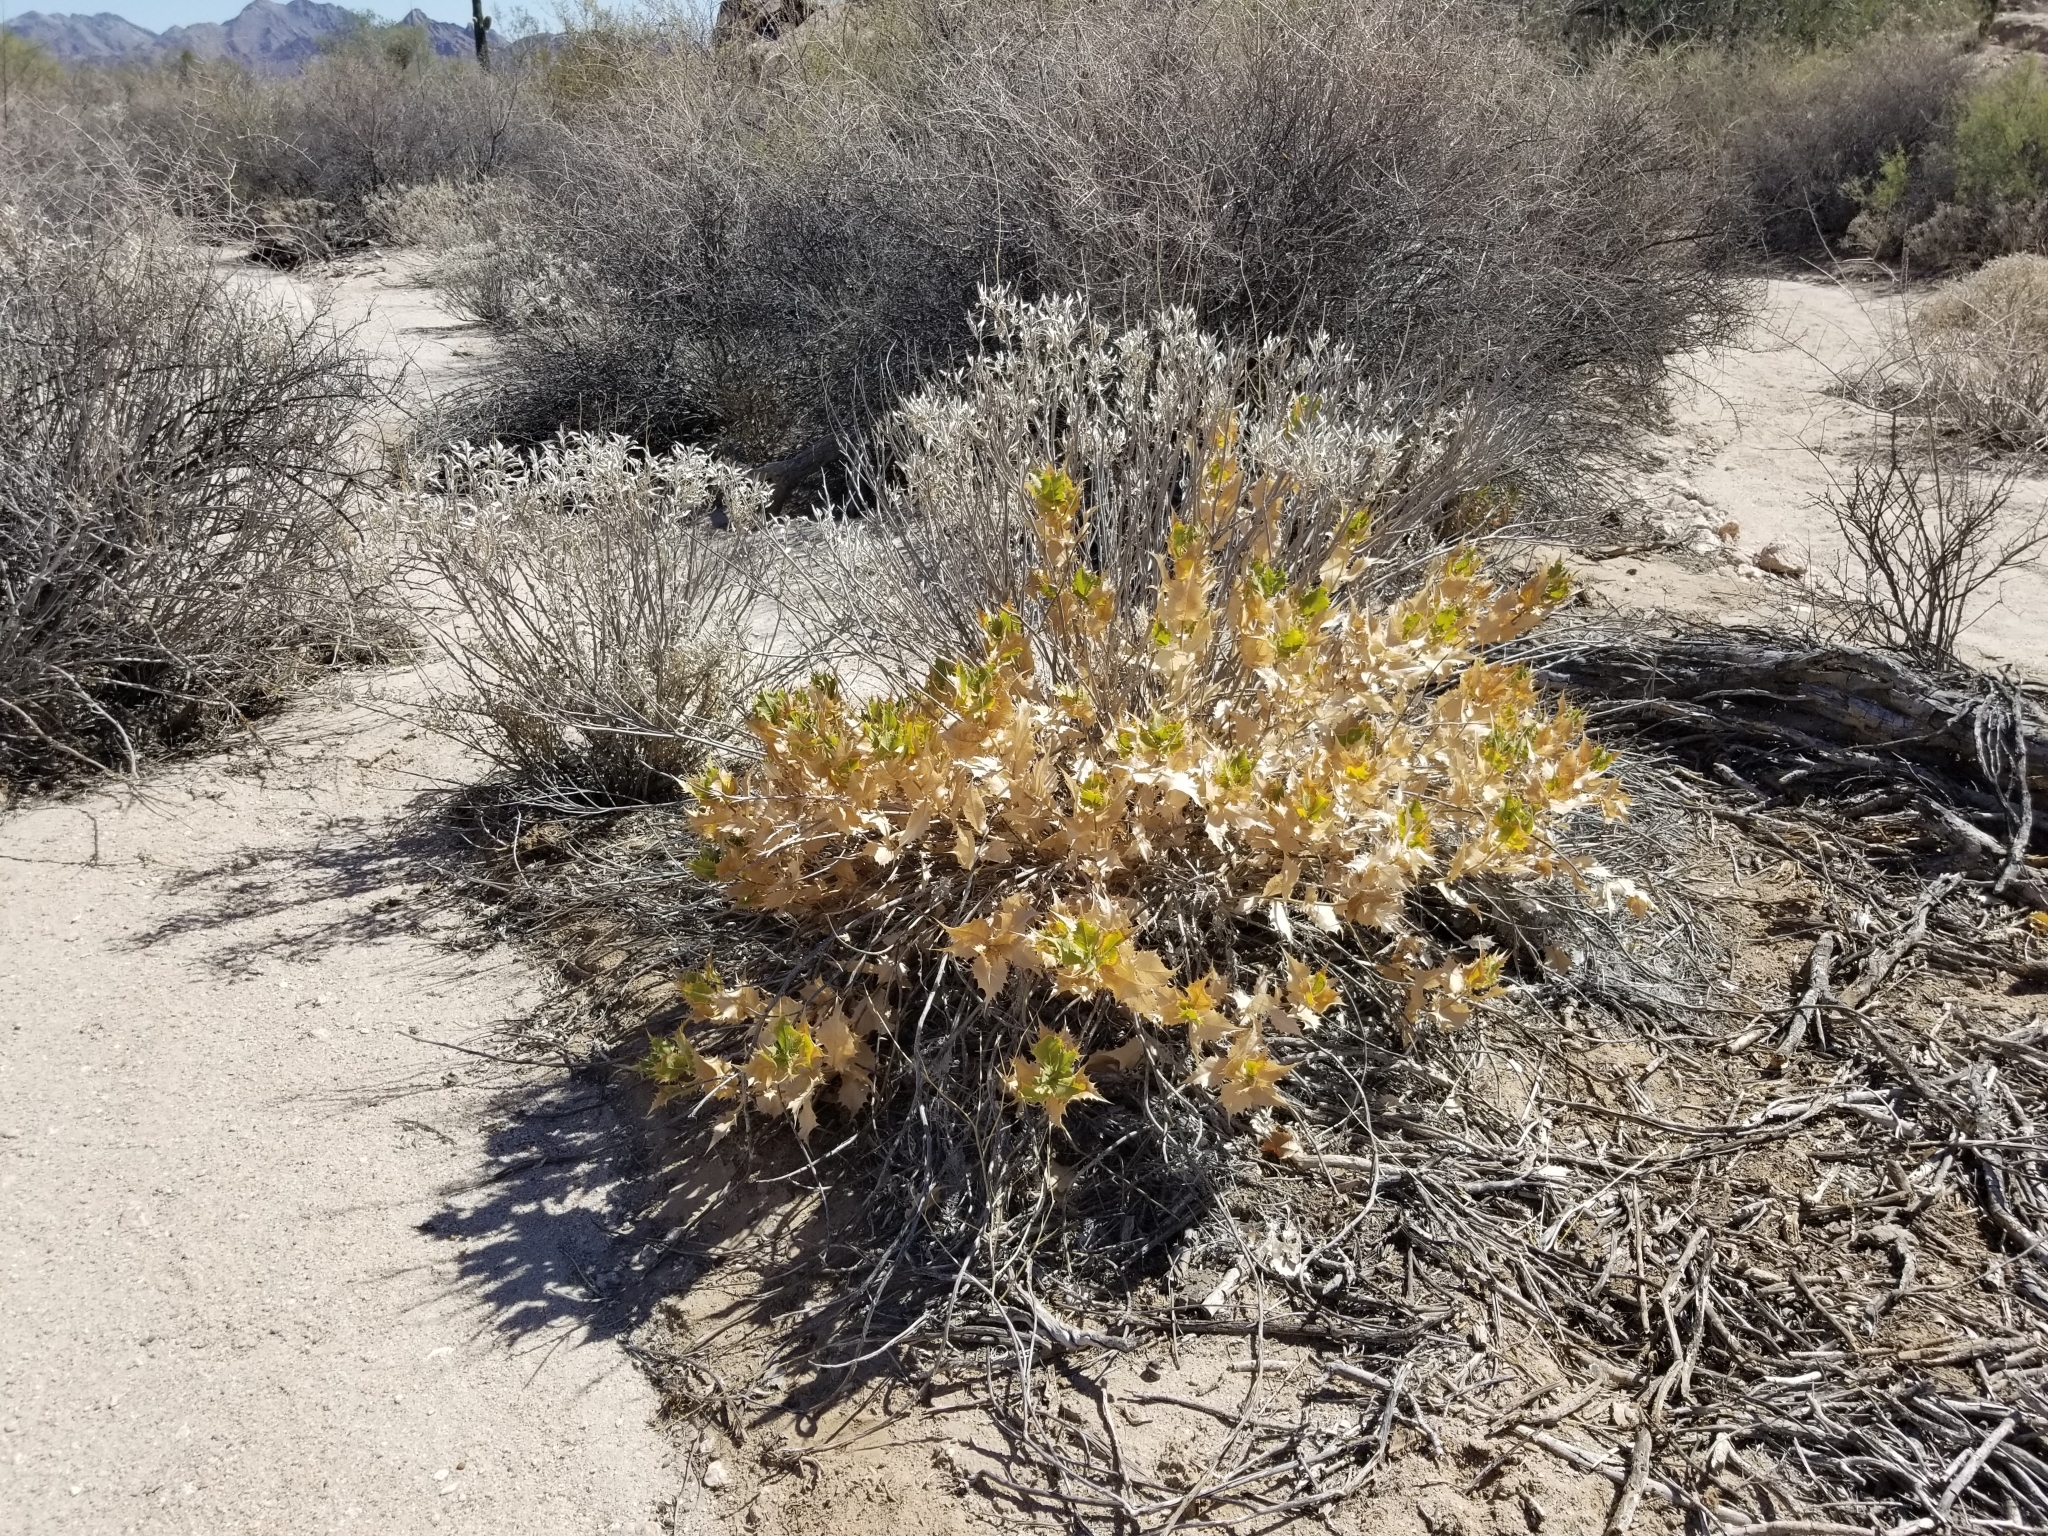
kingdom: Plantae
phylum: Tracheophyta
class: Magnoliopsida
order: Asterales
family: Asteraceae
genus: Ambrosia
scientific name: Ambrosia ilicifolia
